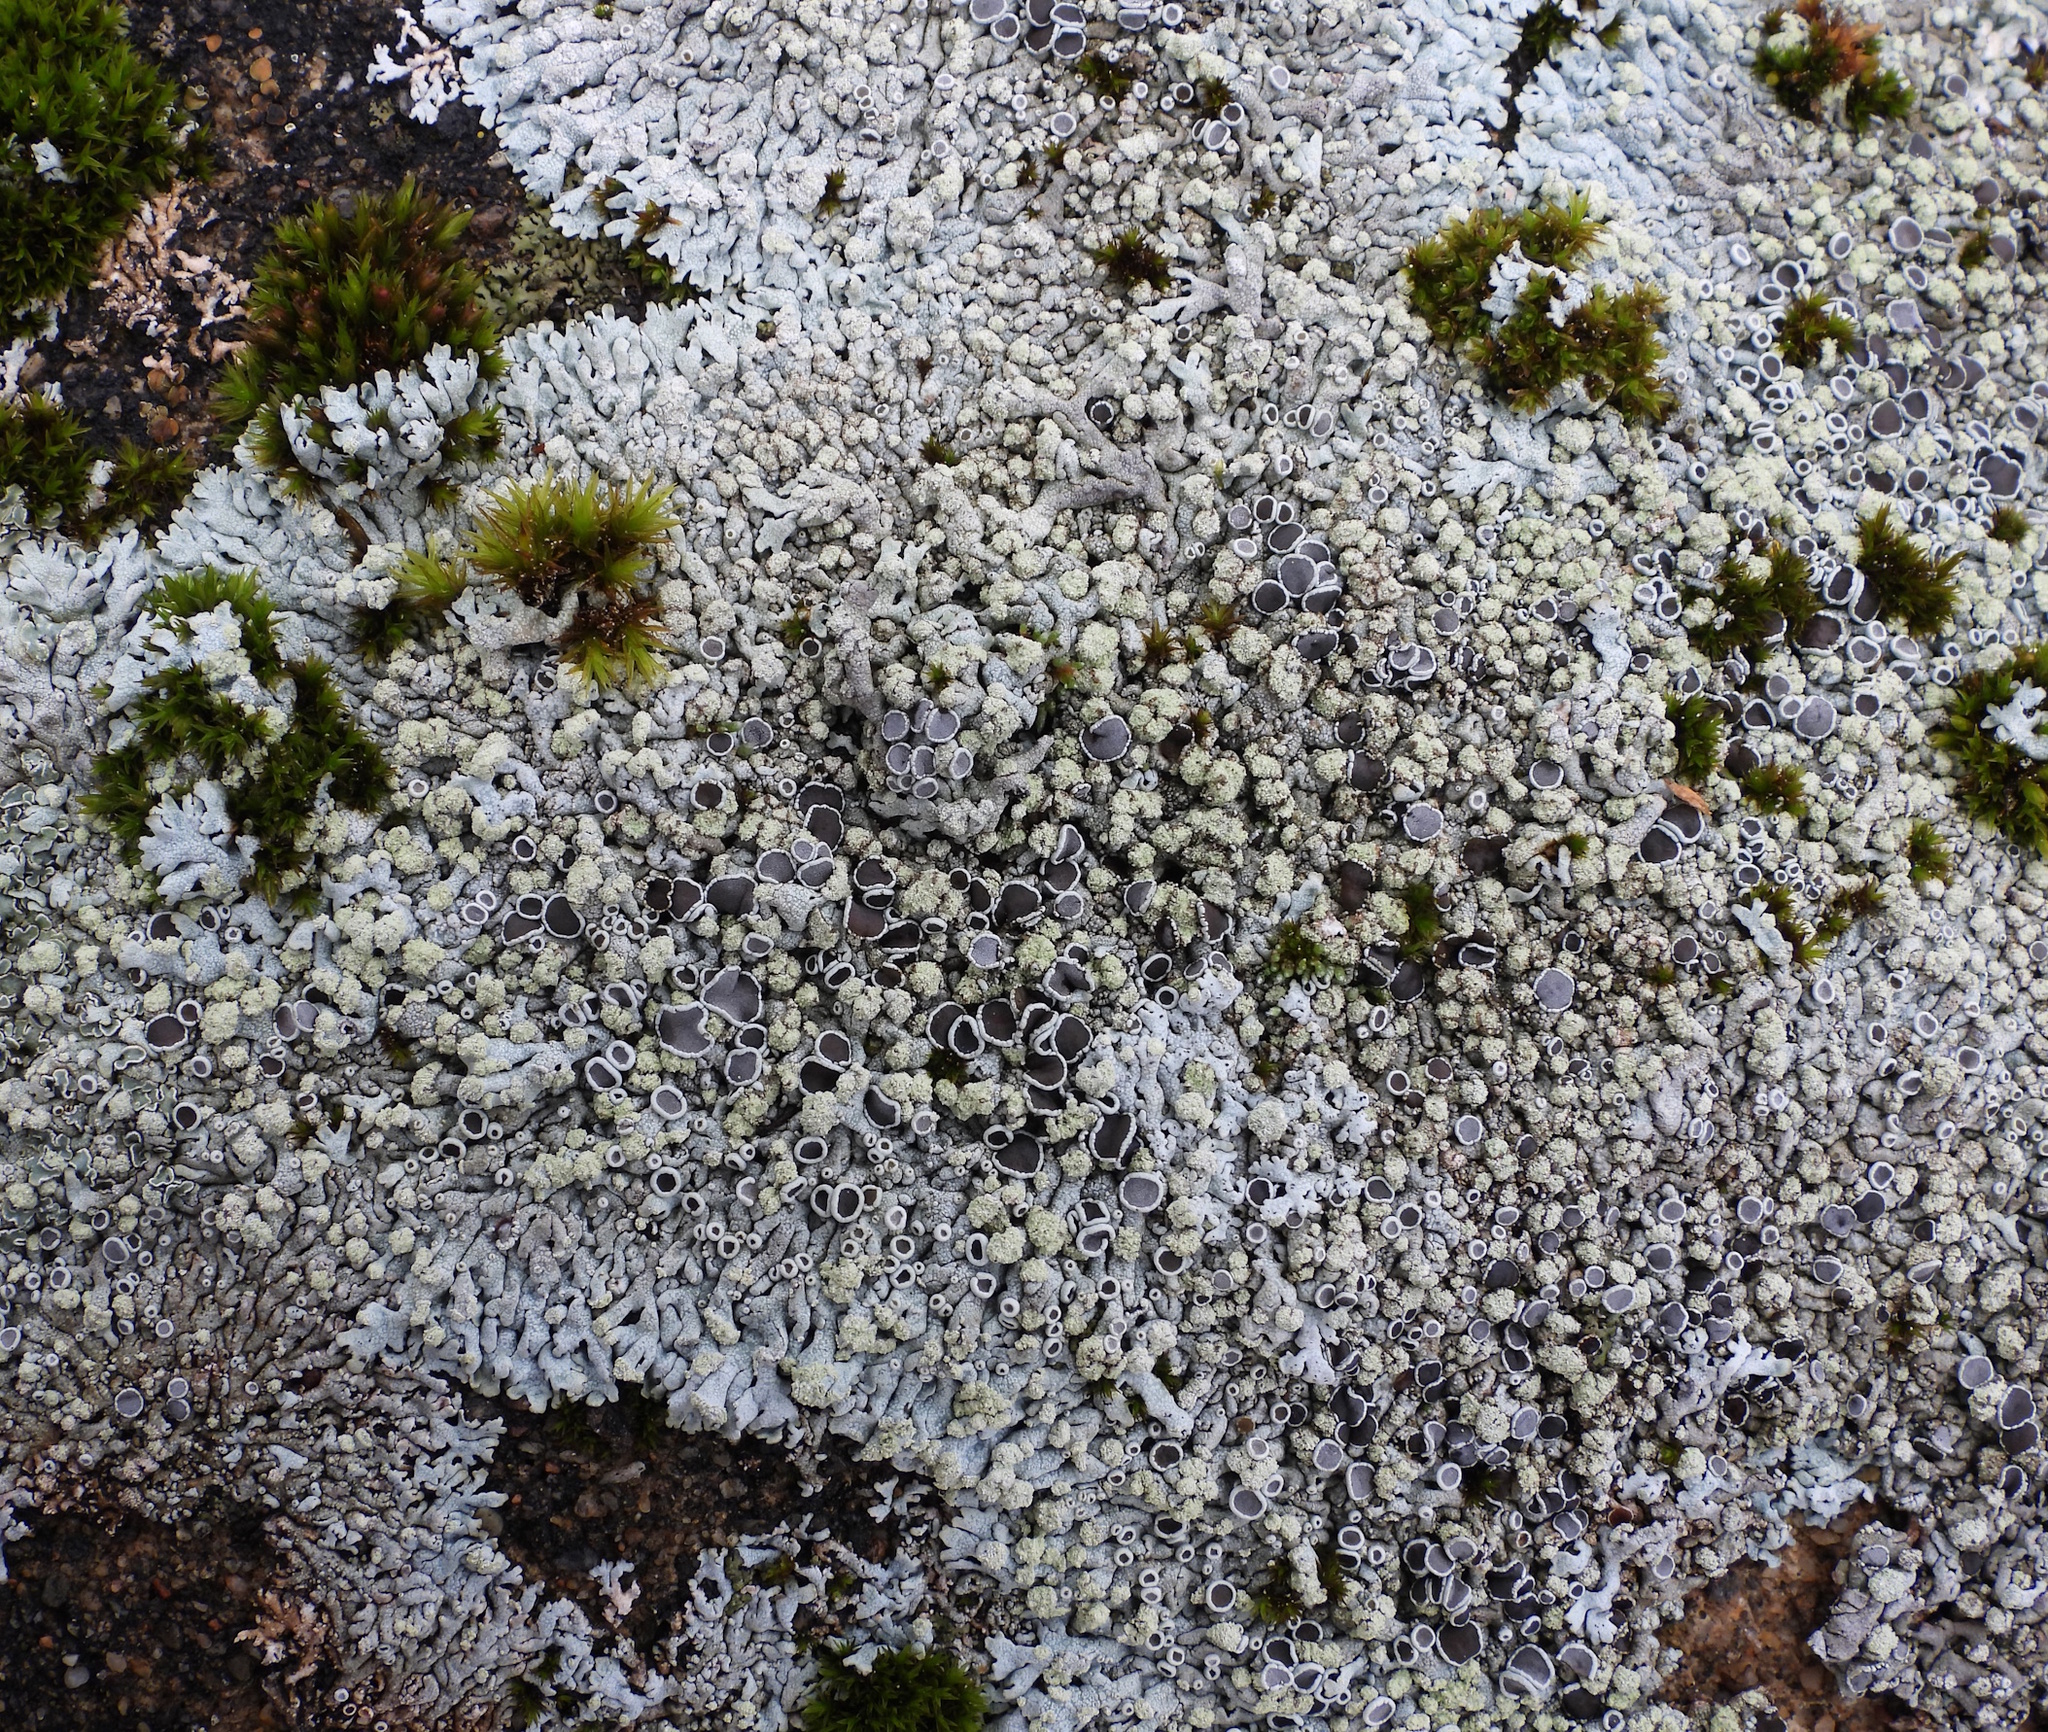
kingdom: Fungi
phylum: Ascomycota
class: Lecanoromycetes
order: Caliciales
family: Physciaceae
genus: Physcia
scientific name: Physcia caesia
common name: Blue-gray rosette lichen
